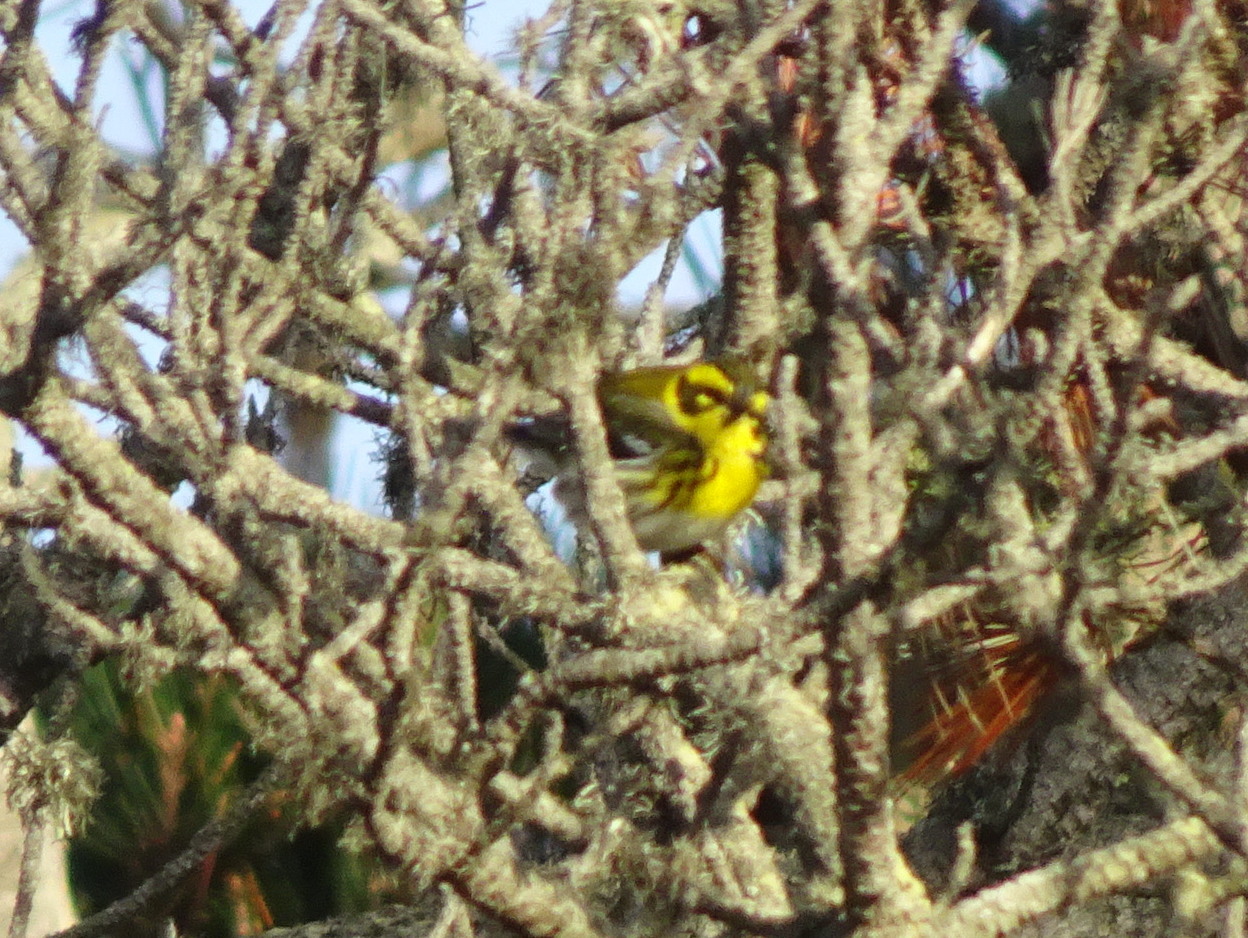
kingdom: Animalia
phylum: Chordata
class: Aves
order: Passeriformes
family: Parulidae
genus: Setophaga
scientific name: Setophaga townsendi
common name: Townsend's warbler
